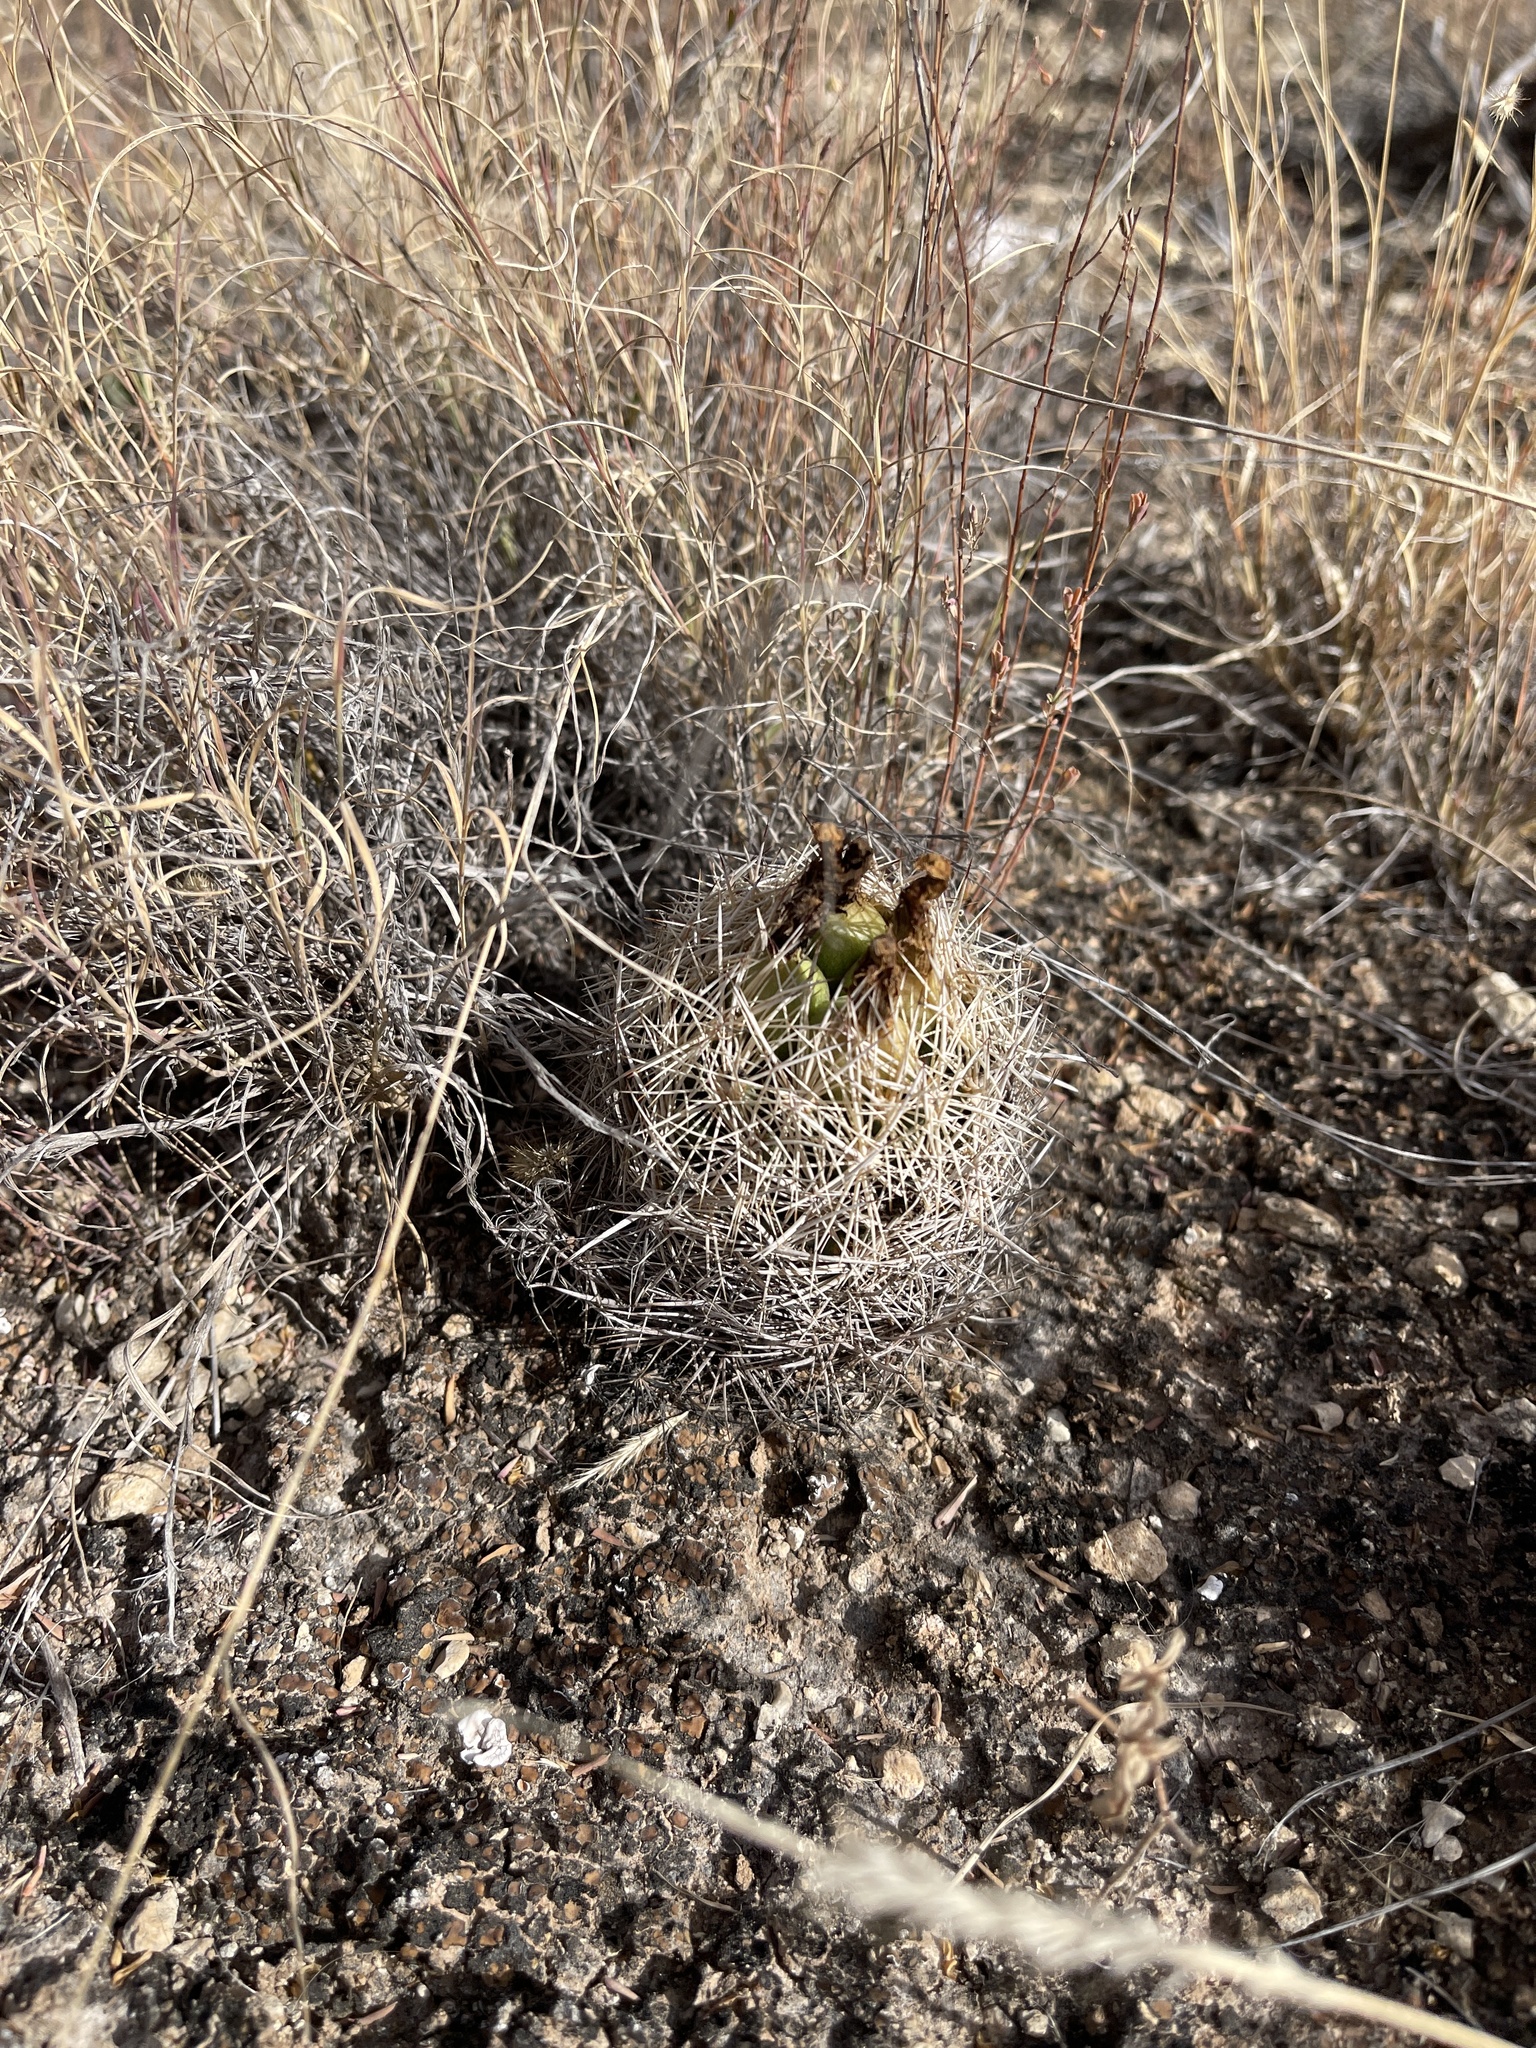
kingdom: Plantae
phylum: Tracheophyta
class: Magnoliopsida
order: Caryophyllales
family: Cactaceae
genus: Coryphantha
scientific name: Coryphantha echinus
